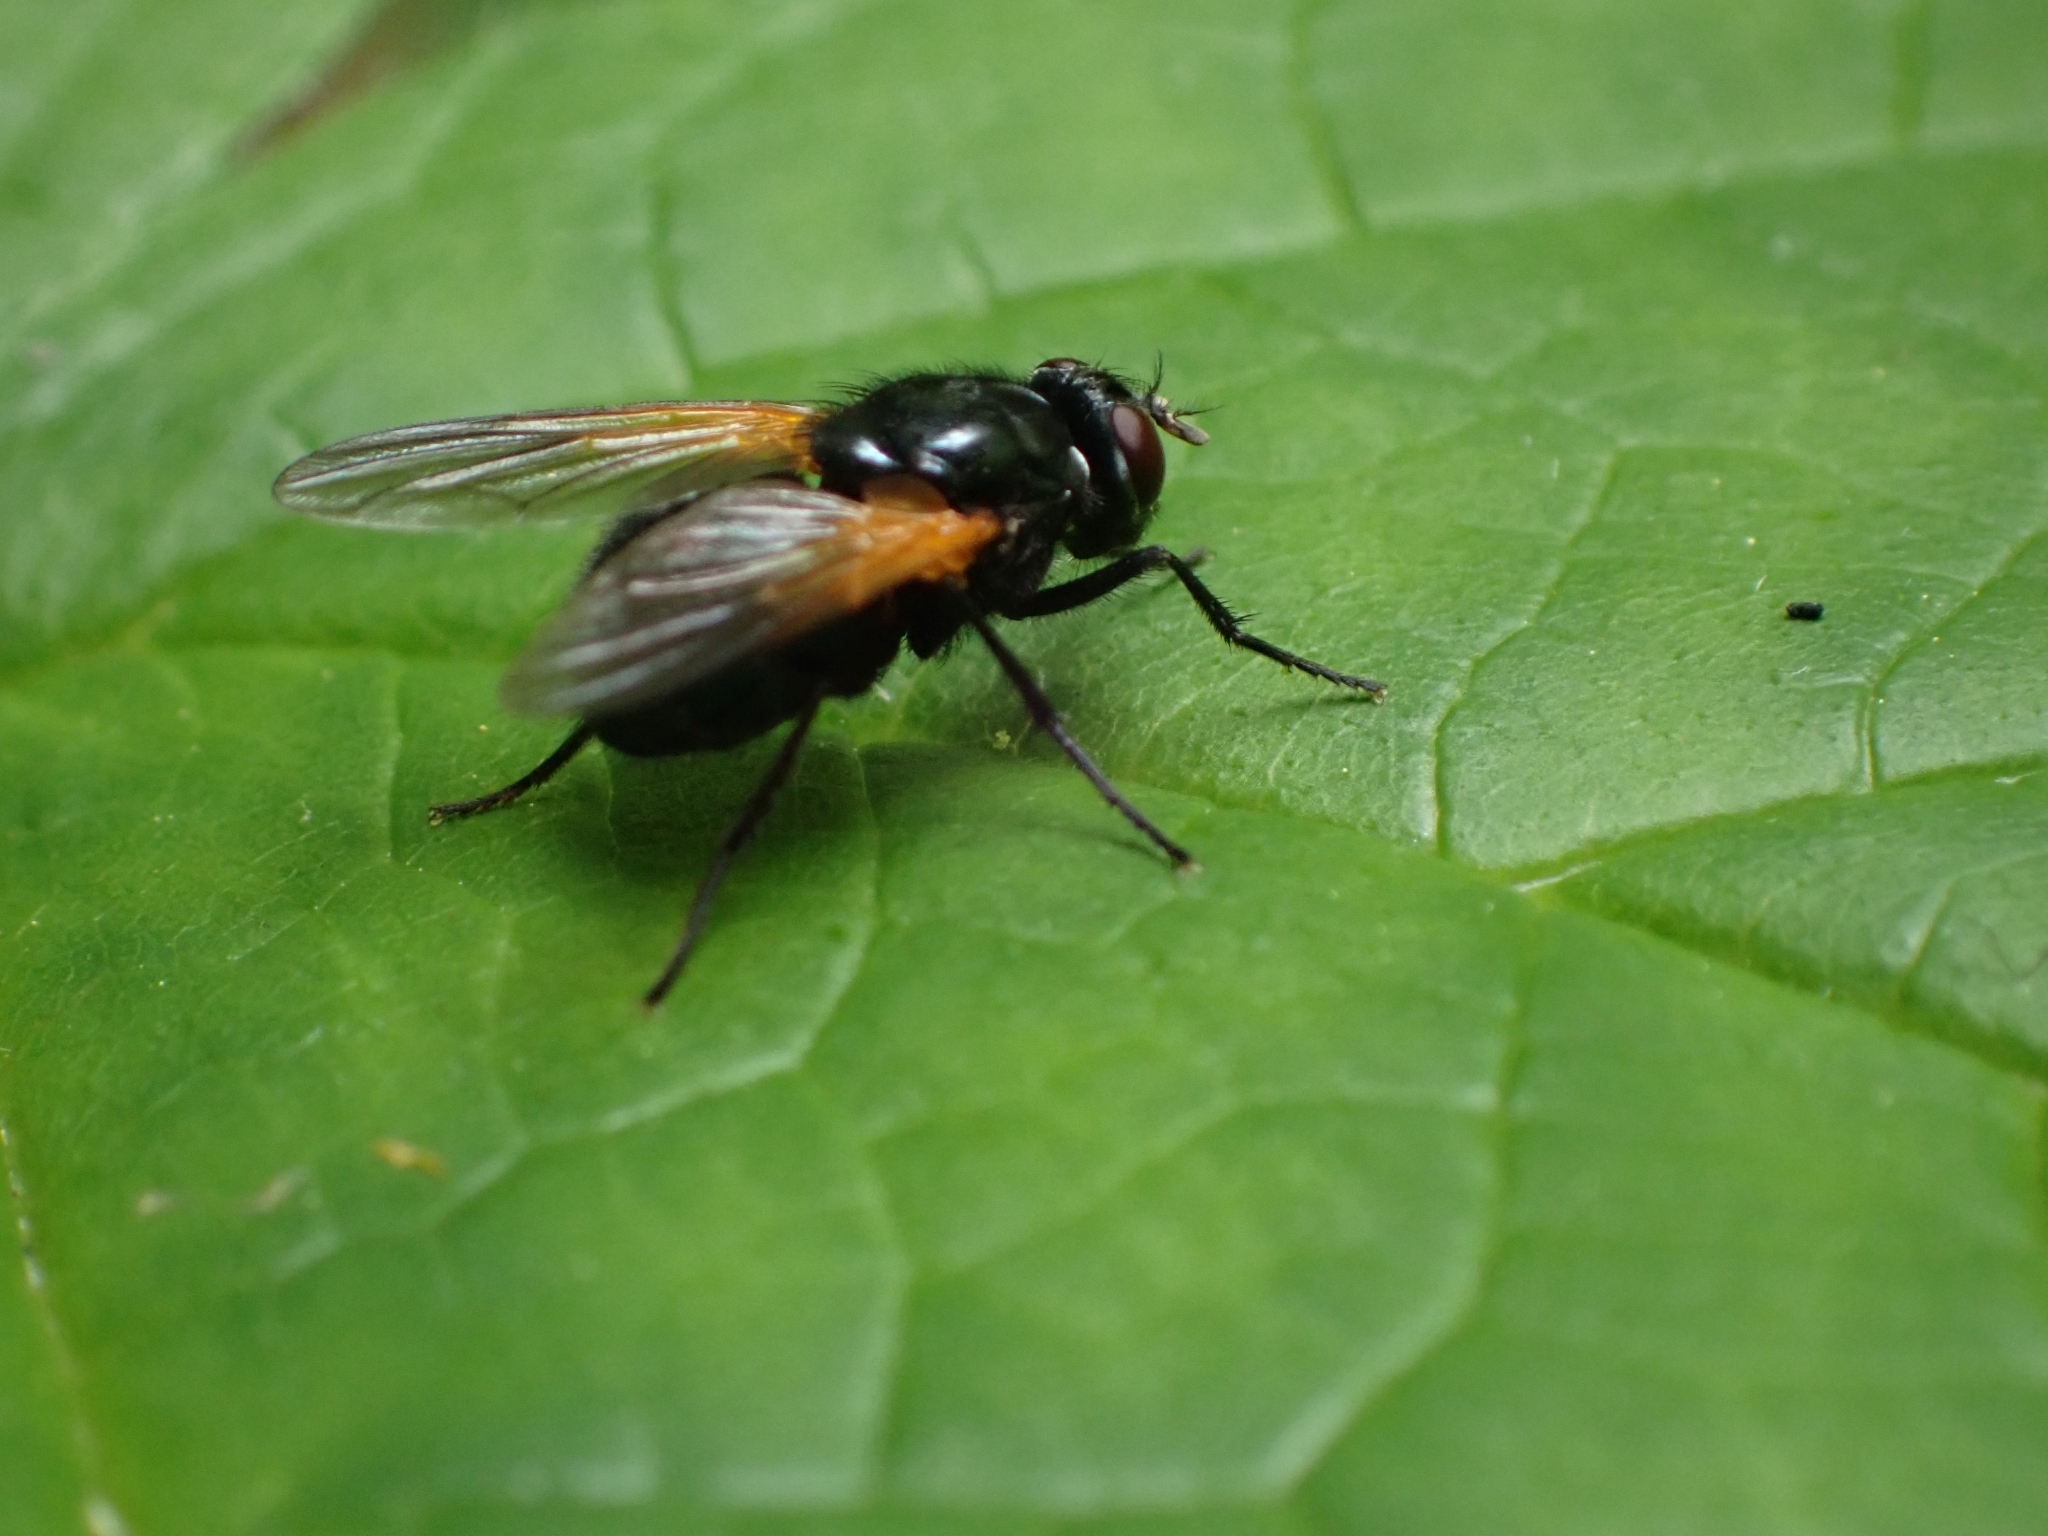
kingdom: Animalia
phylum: Arthropoda
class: Insecta
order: Diptera
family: Muscidae
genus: Mesembrina
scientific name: Mesembrina latreillii
